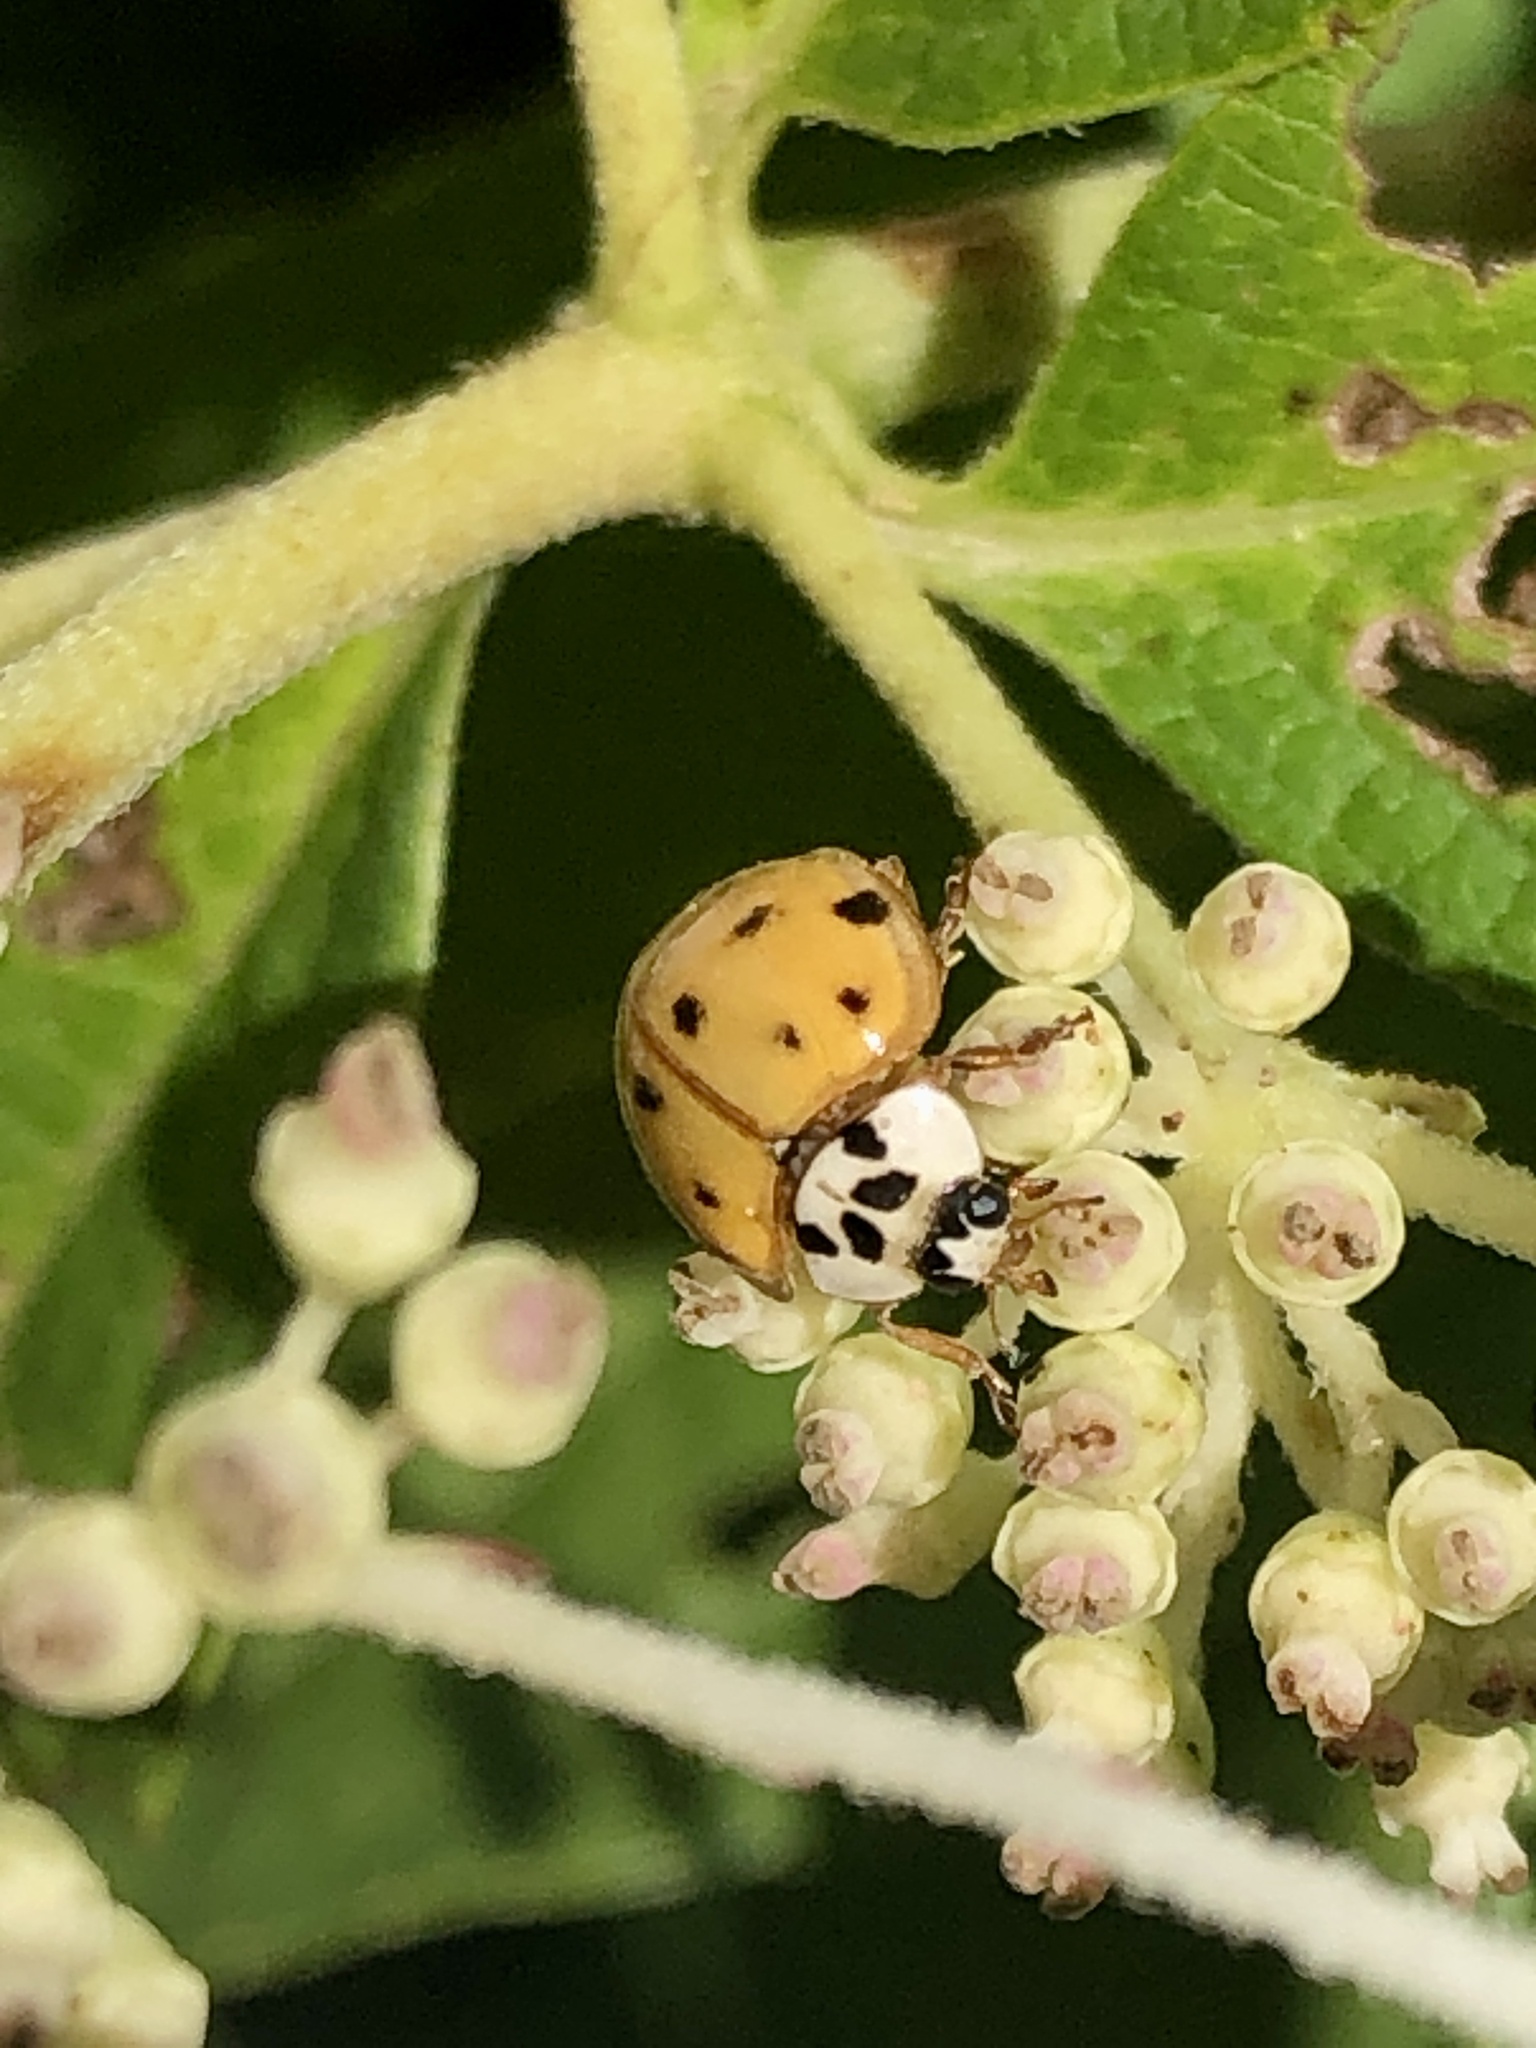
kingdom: Animalia
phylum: Arthropoda
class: Insecta
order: Coleoptera
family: Coccinellidae
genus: Harmonia
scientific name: Harmonia axyridis
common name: Harlequin ladybird
